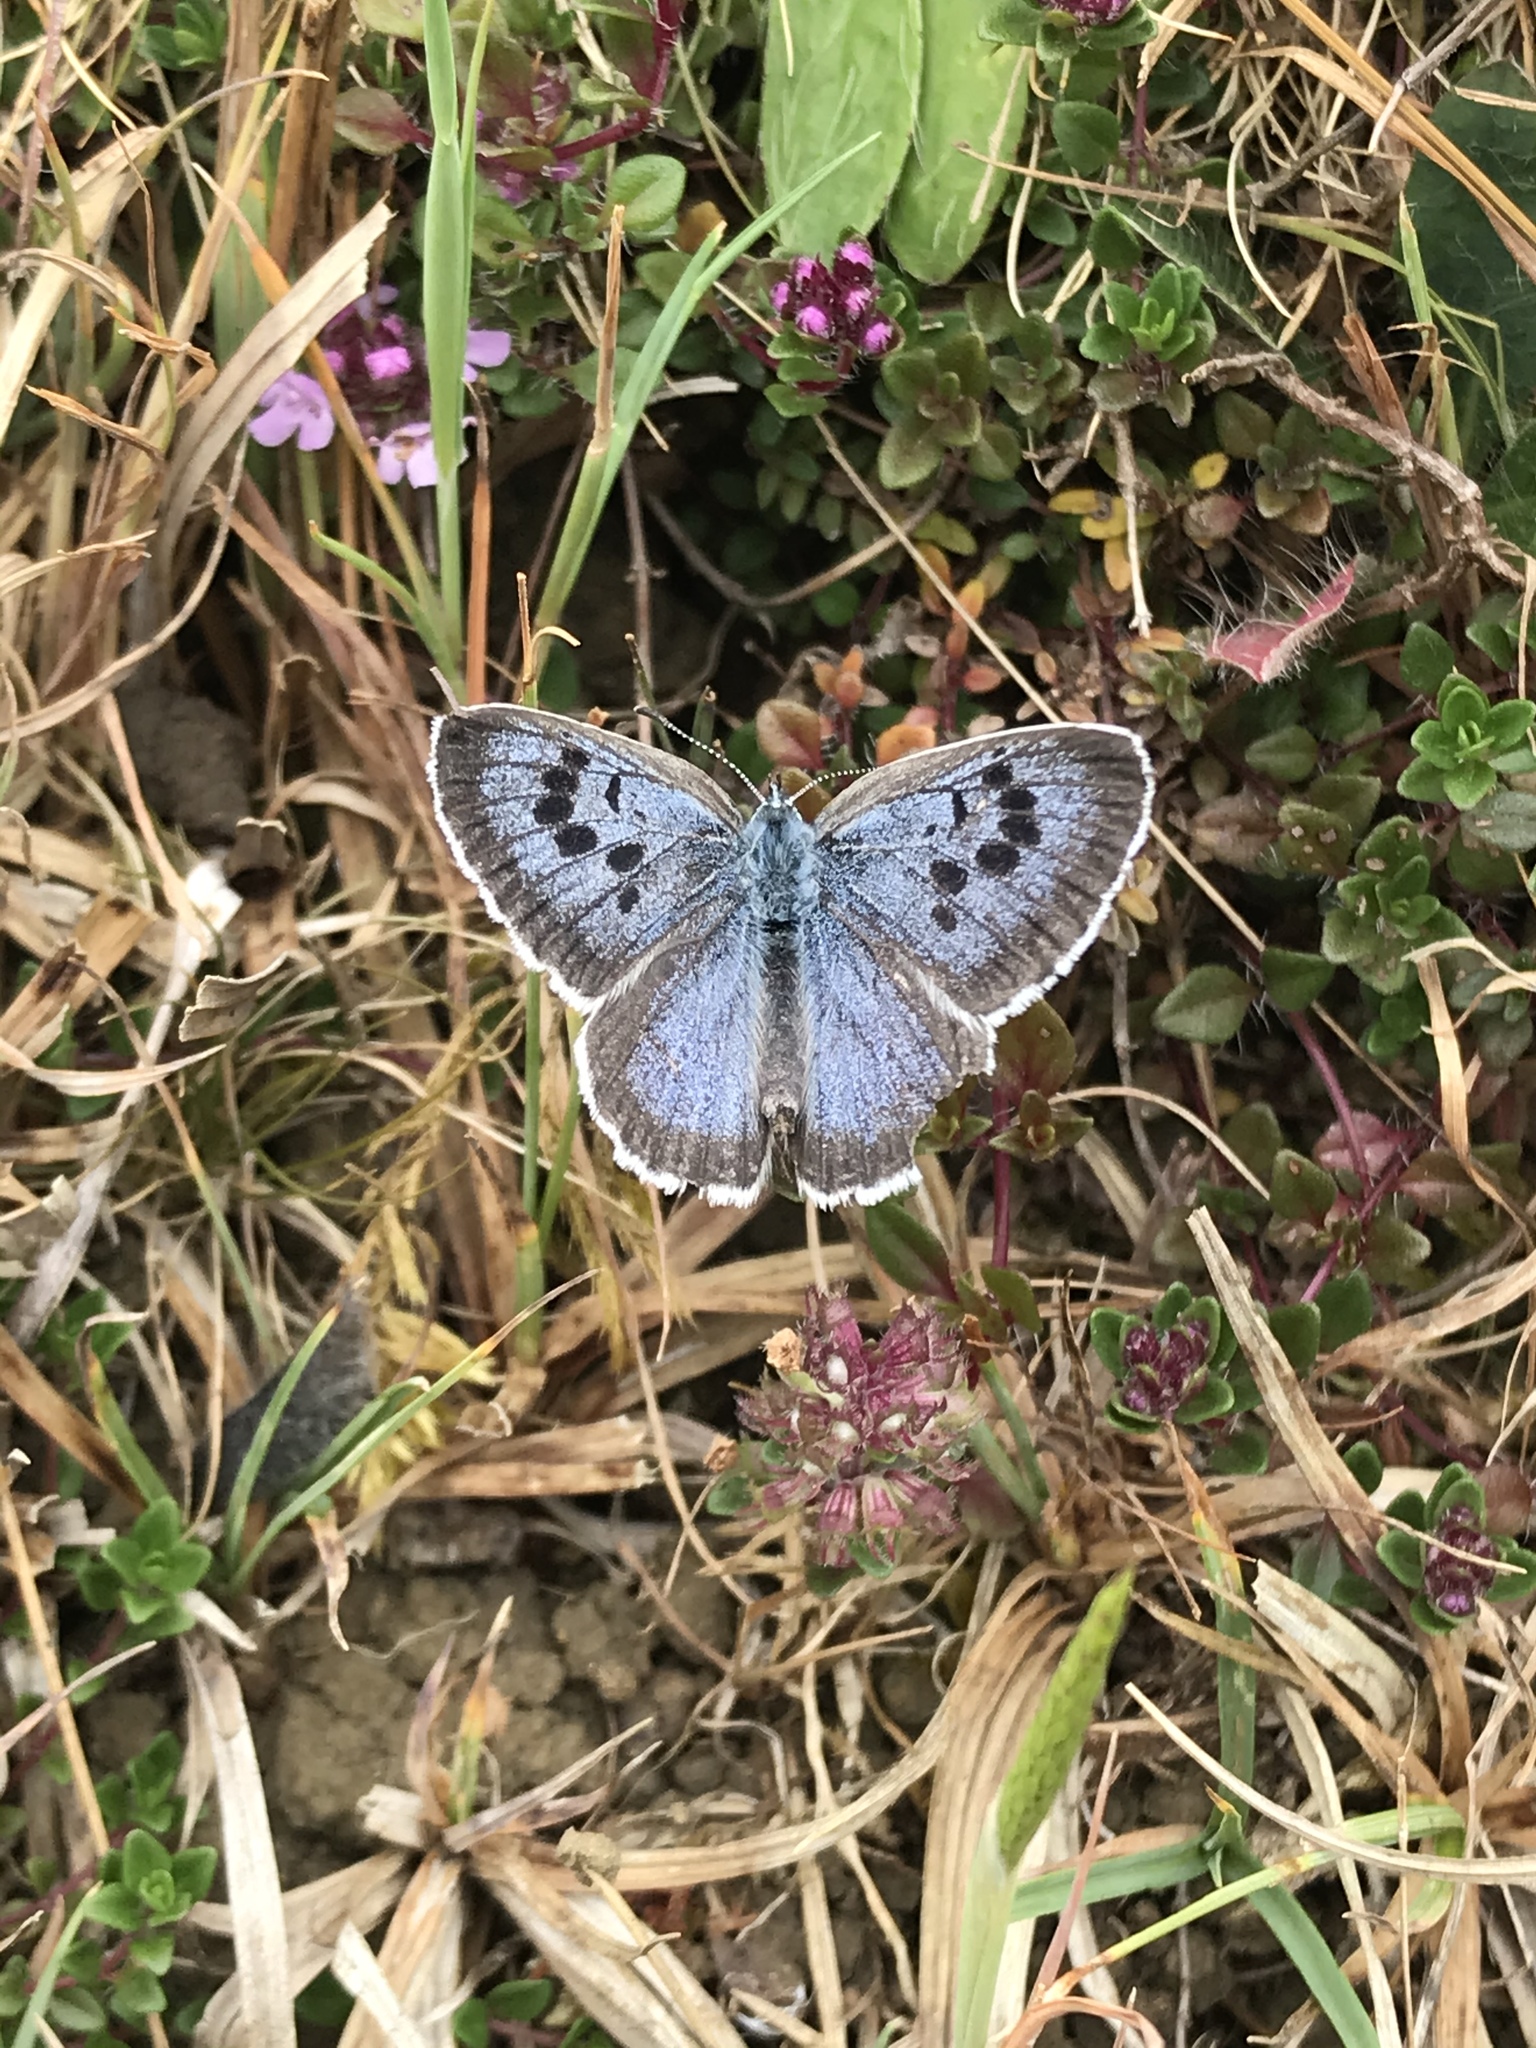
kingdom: Animalia
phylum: Arthropoda
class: Insecta
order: Lepidoptera
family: Lycaenidae
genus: Maculinea
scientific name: Maculinea arion
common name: Large blue
